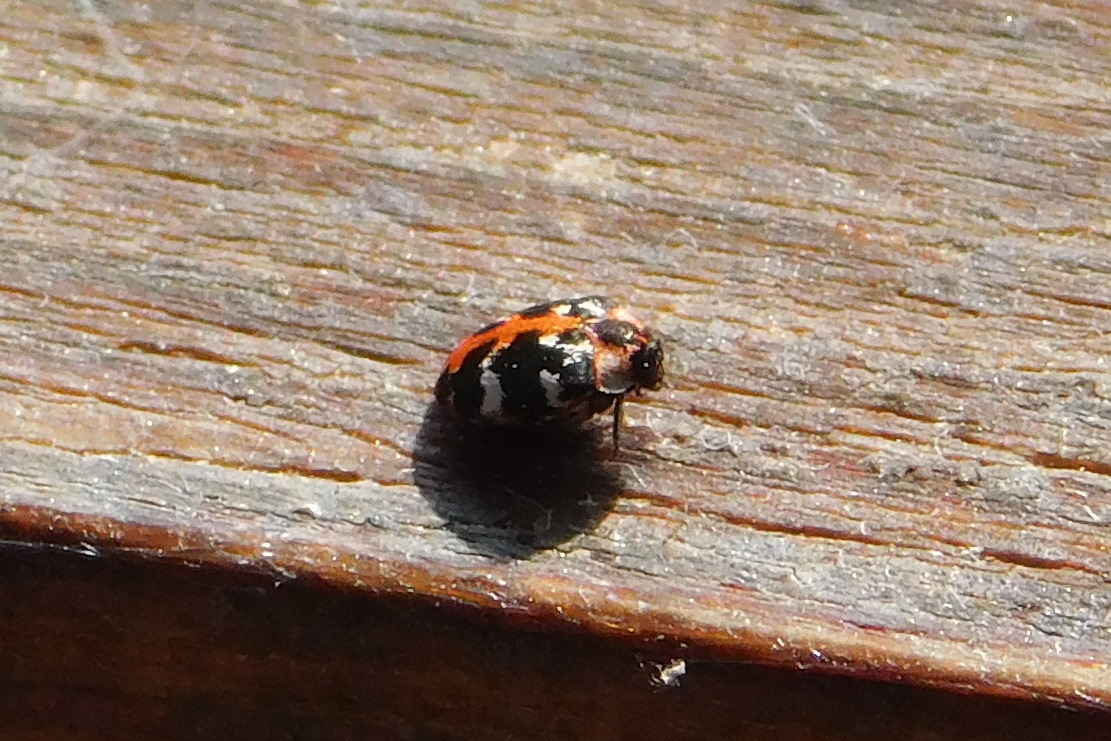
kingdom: Animalia
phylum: Arthropoda
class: Insecta
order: Coleoptera
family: Dermestidae
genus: Anthrenus
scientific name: Anthrenus scrophulariae
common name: Buffalo carpet beetle
